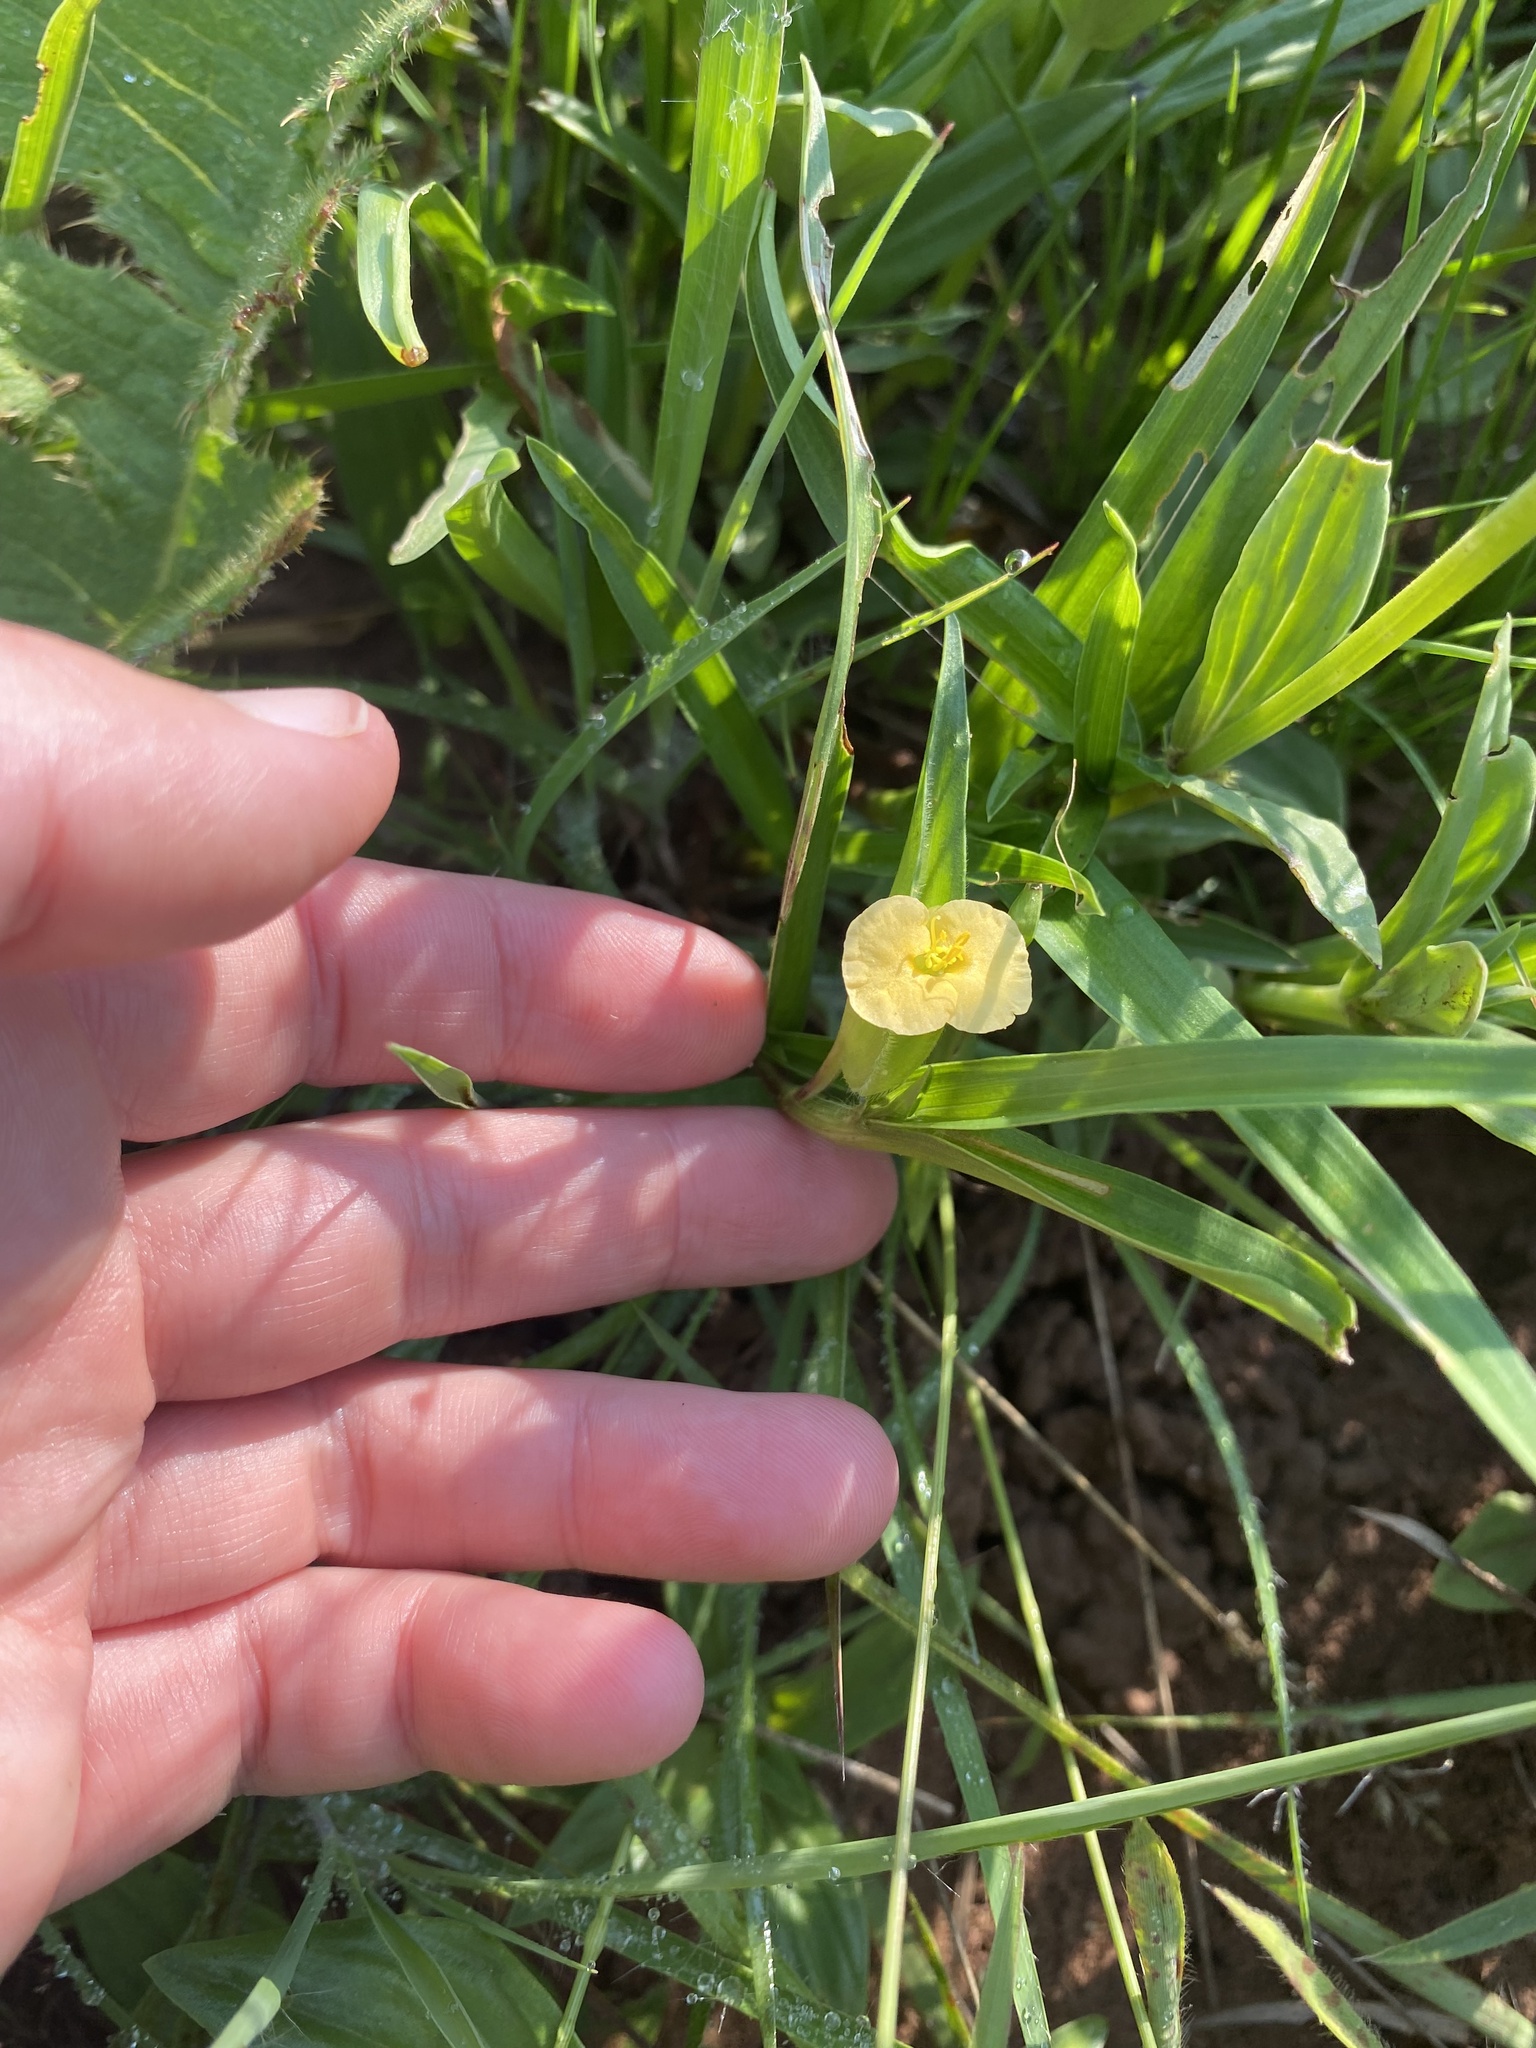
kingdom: Plantae
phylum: Tracheophyta
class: Liliopsida
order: Commelinales
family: Commelinaceae
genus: Commelina
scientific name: Commelina africana
